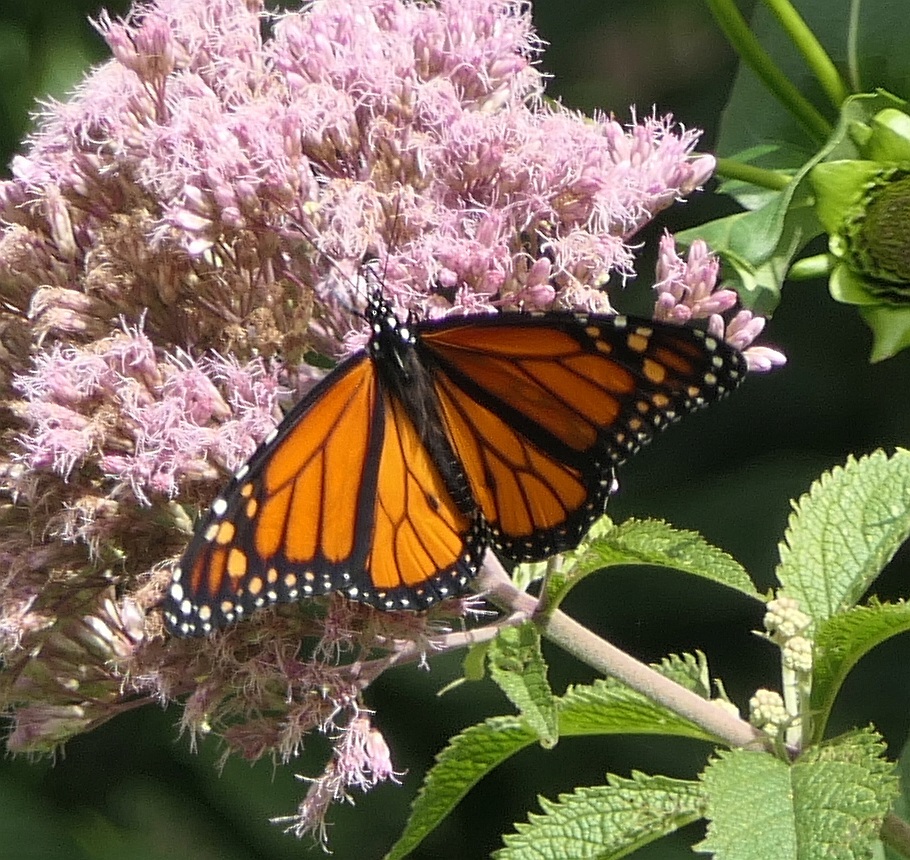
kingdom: Animalia
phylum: Arthropoda
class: Insecta
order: Lepidoptera
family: Nymphalidae
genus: Danaus
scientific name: Danaus plexippus
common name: Monarch
